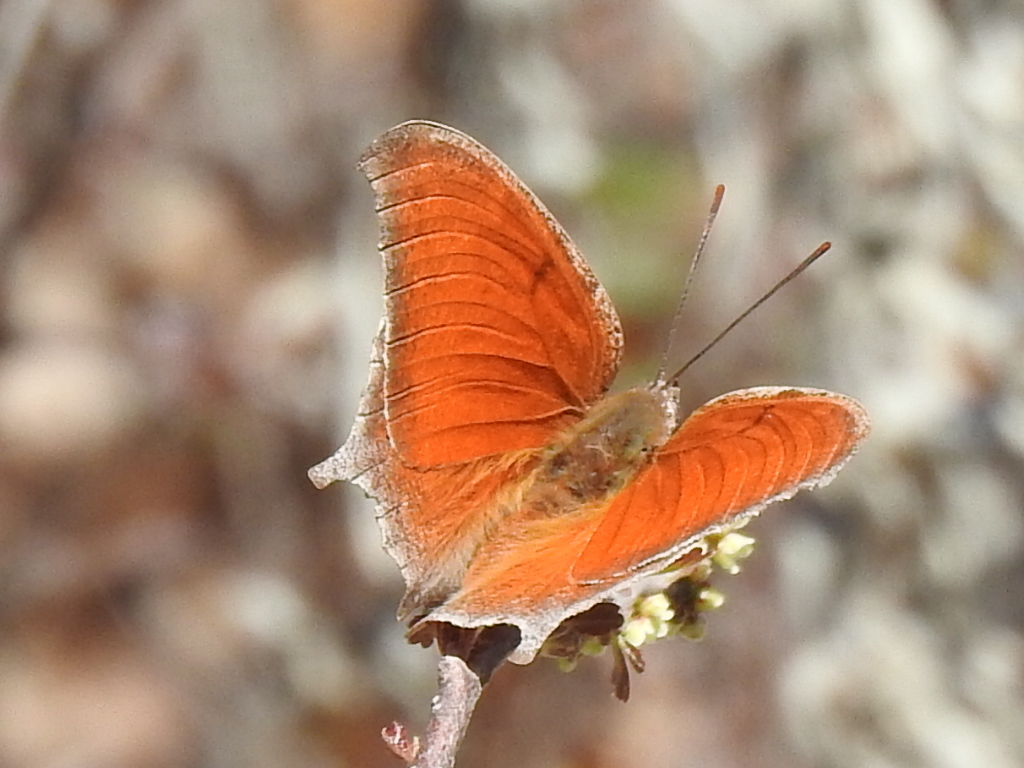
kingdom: Animalia
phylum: Arthropoda
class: Insecta
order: Lepidoptera
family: Nymphalidae
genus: Anaea
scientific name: Anaea andria
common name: Goatweed leafwing
